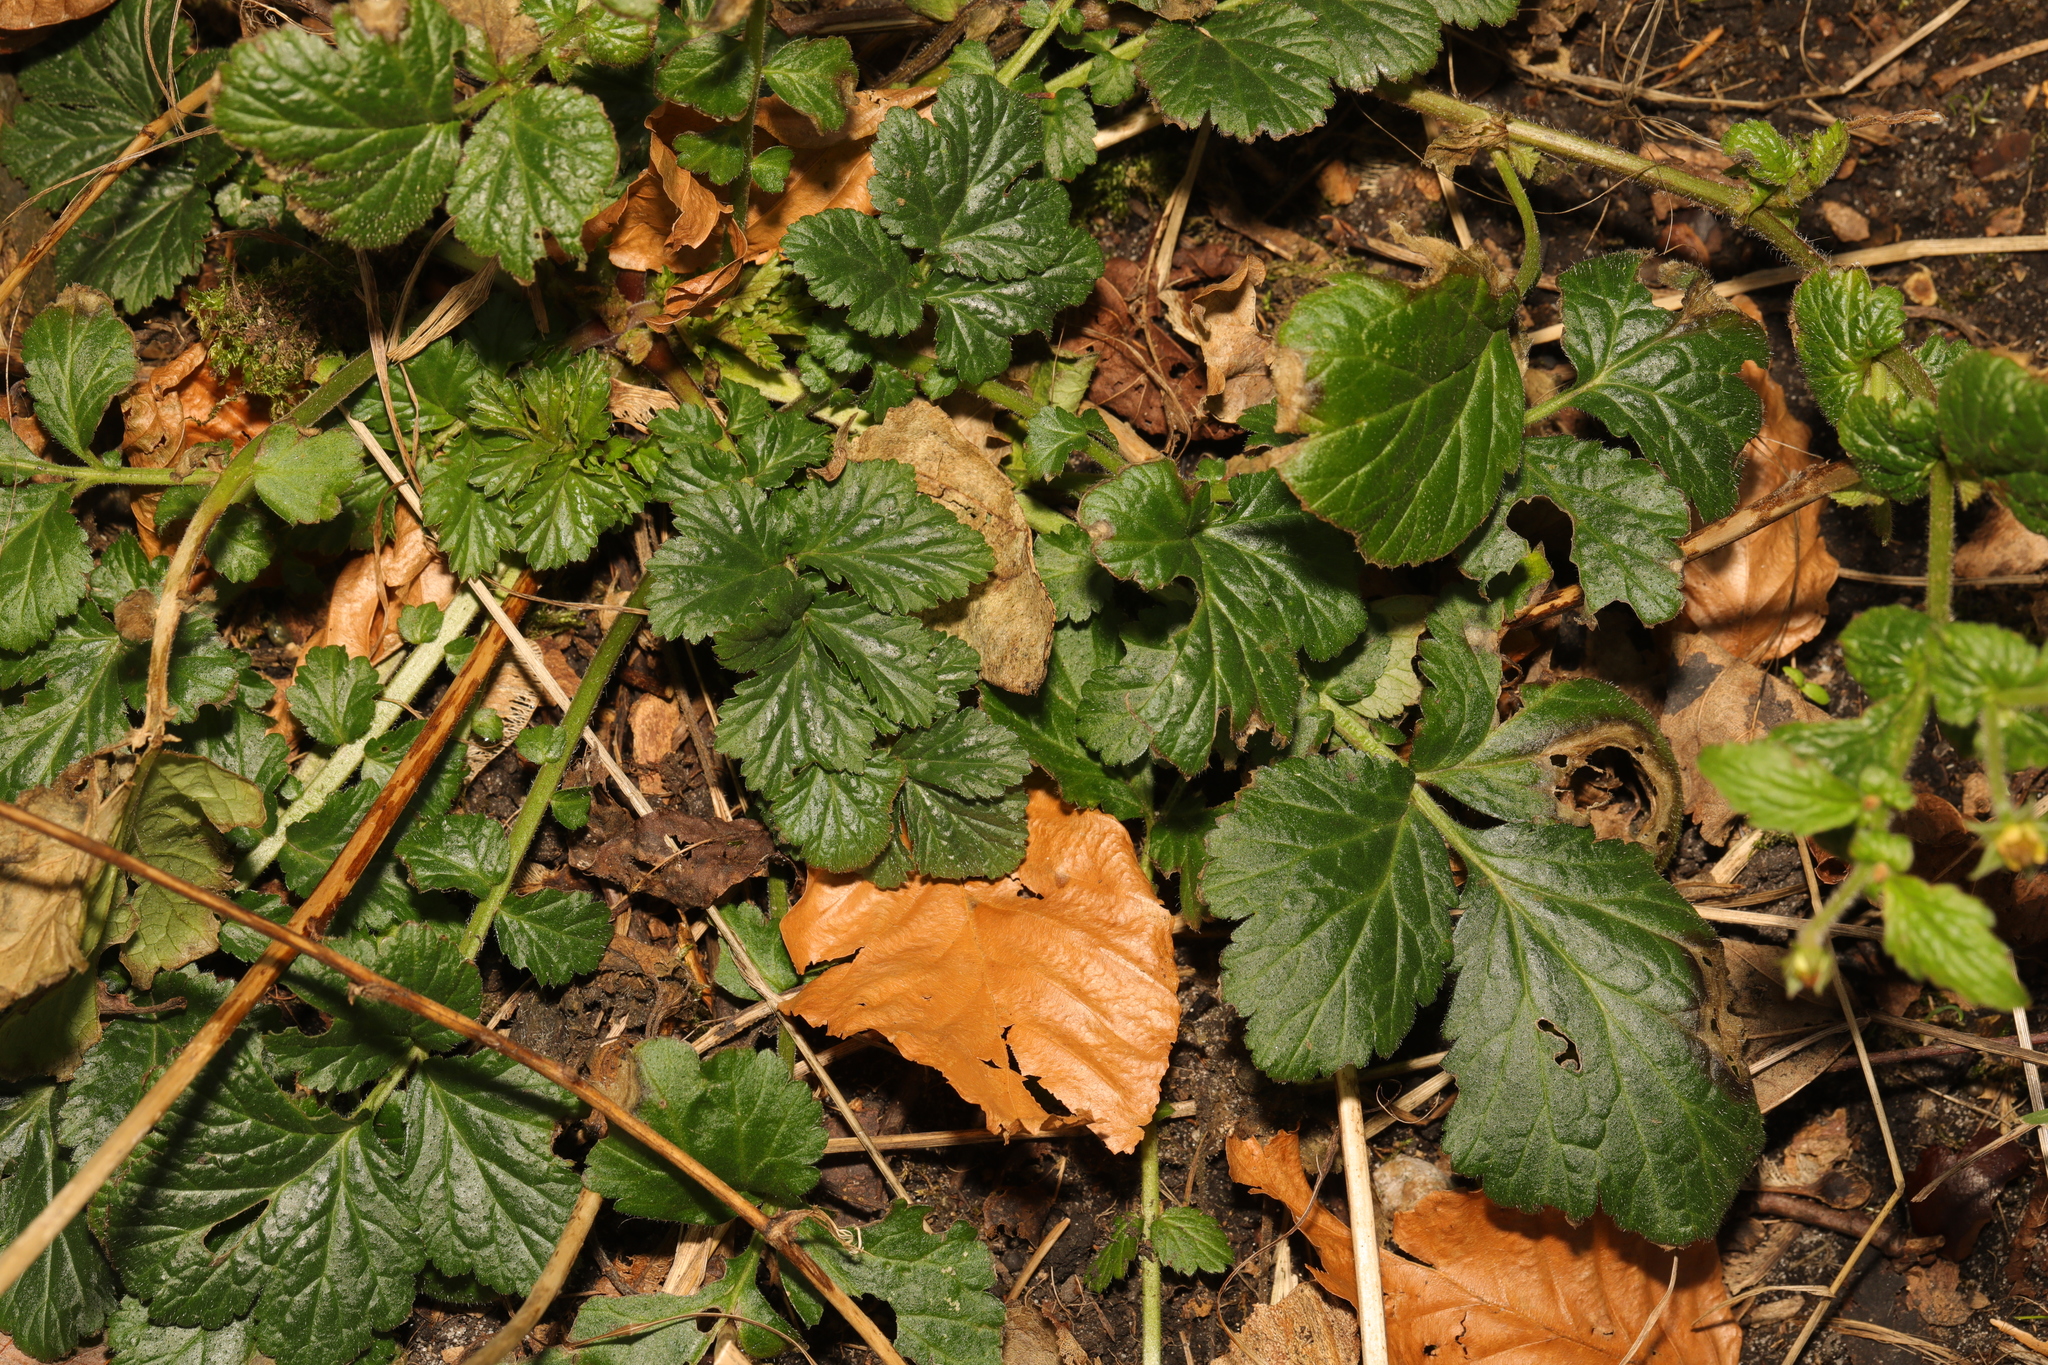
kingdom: Plantae
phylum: Tracheophyta
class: Magnoliopsida
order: Rosales
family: Rosaceae
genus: Geum
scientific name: Geum urbanum
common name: Wood avens
